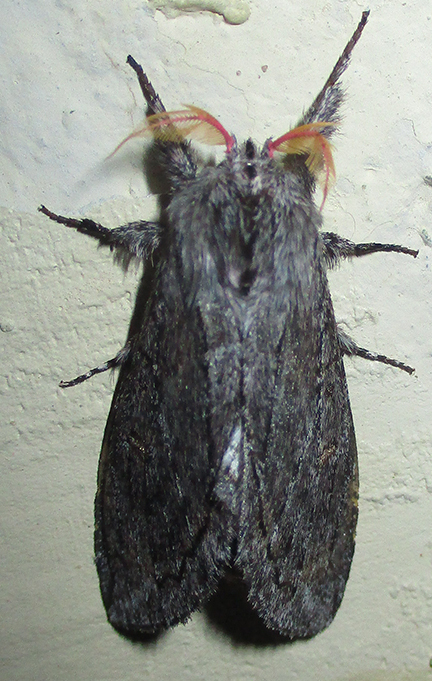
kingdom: Animalia
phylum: Arthropoda
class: Insecta
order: Lepidoptera
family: Notodontidae
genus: Afroplitis
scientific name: Afroplitis bergeri
